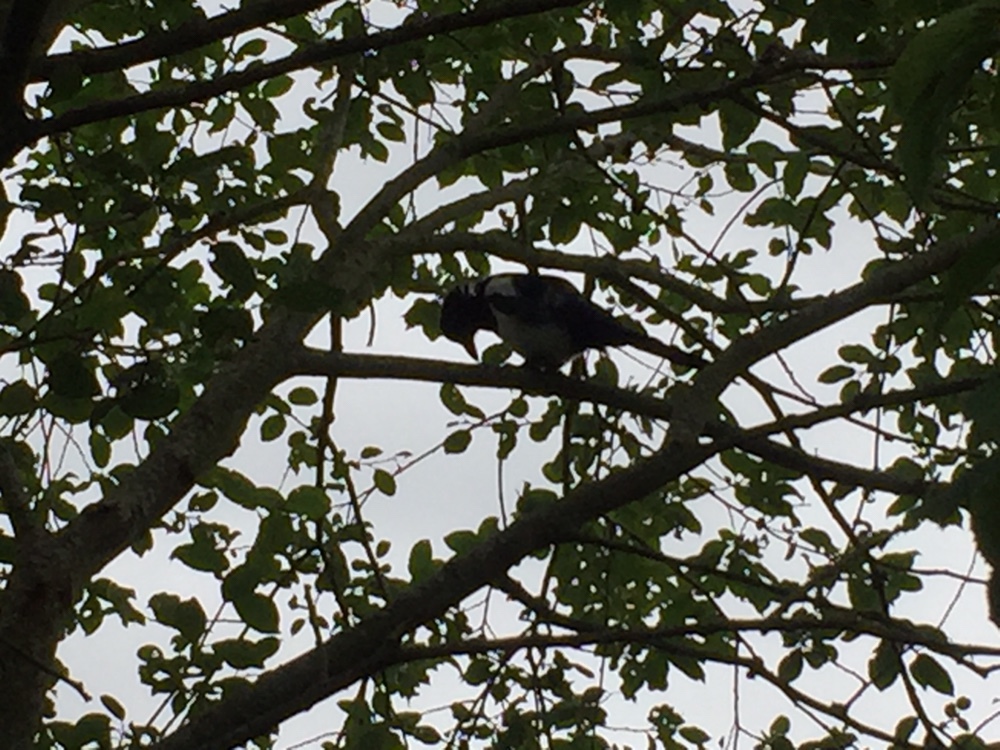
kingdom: Animalia
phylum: Chordata
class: Aves
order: Passeriformes
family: Corvidae
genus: Pica
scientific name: Pica pica
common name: Eurasian magpie
